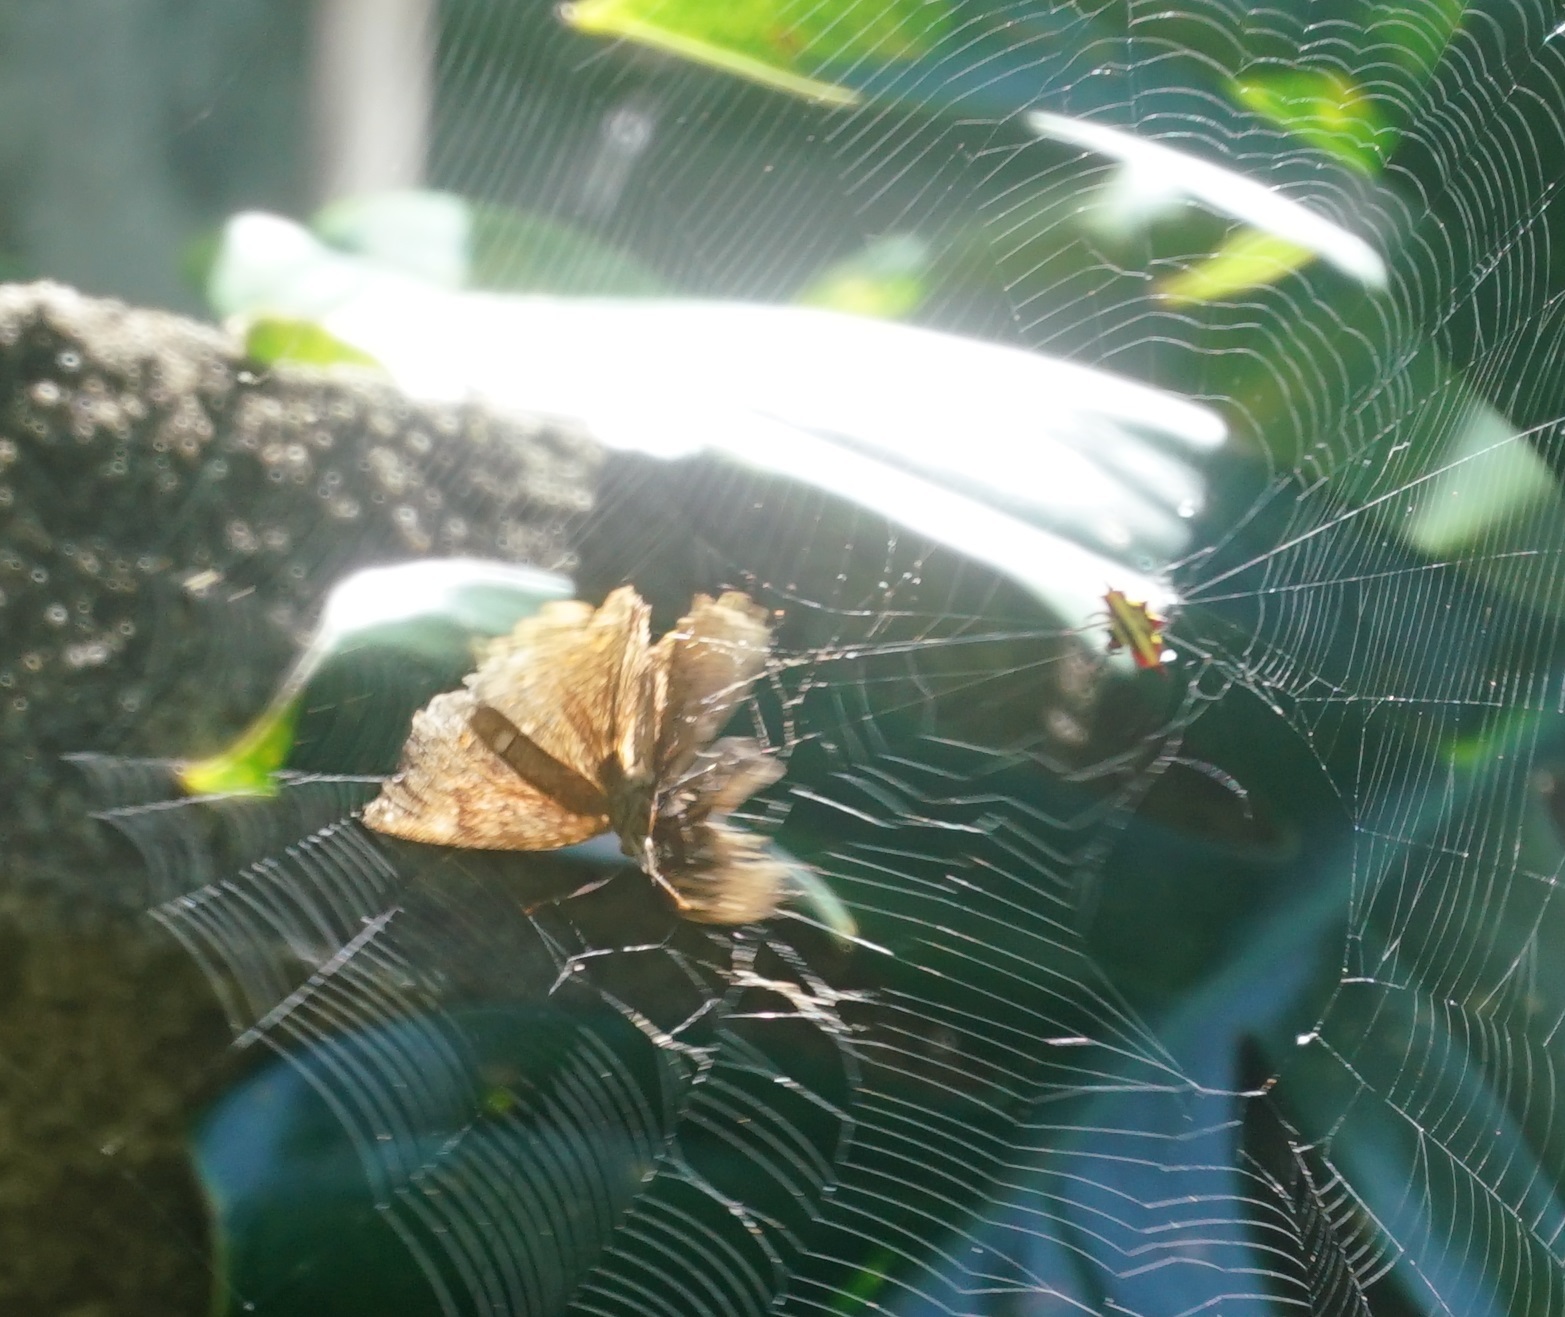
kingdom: Animalia
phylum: Arthropoda
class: Insecta
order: Lepidoptera
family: Nymphalidae
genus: Junonia
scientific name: Junonia hedonia
